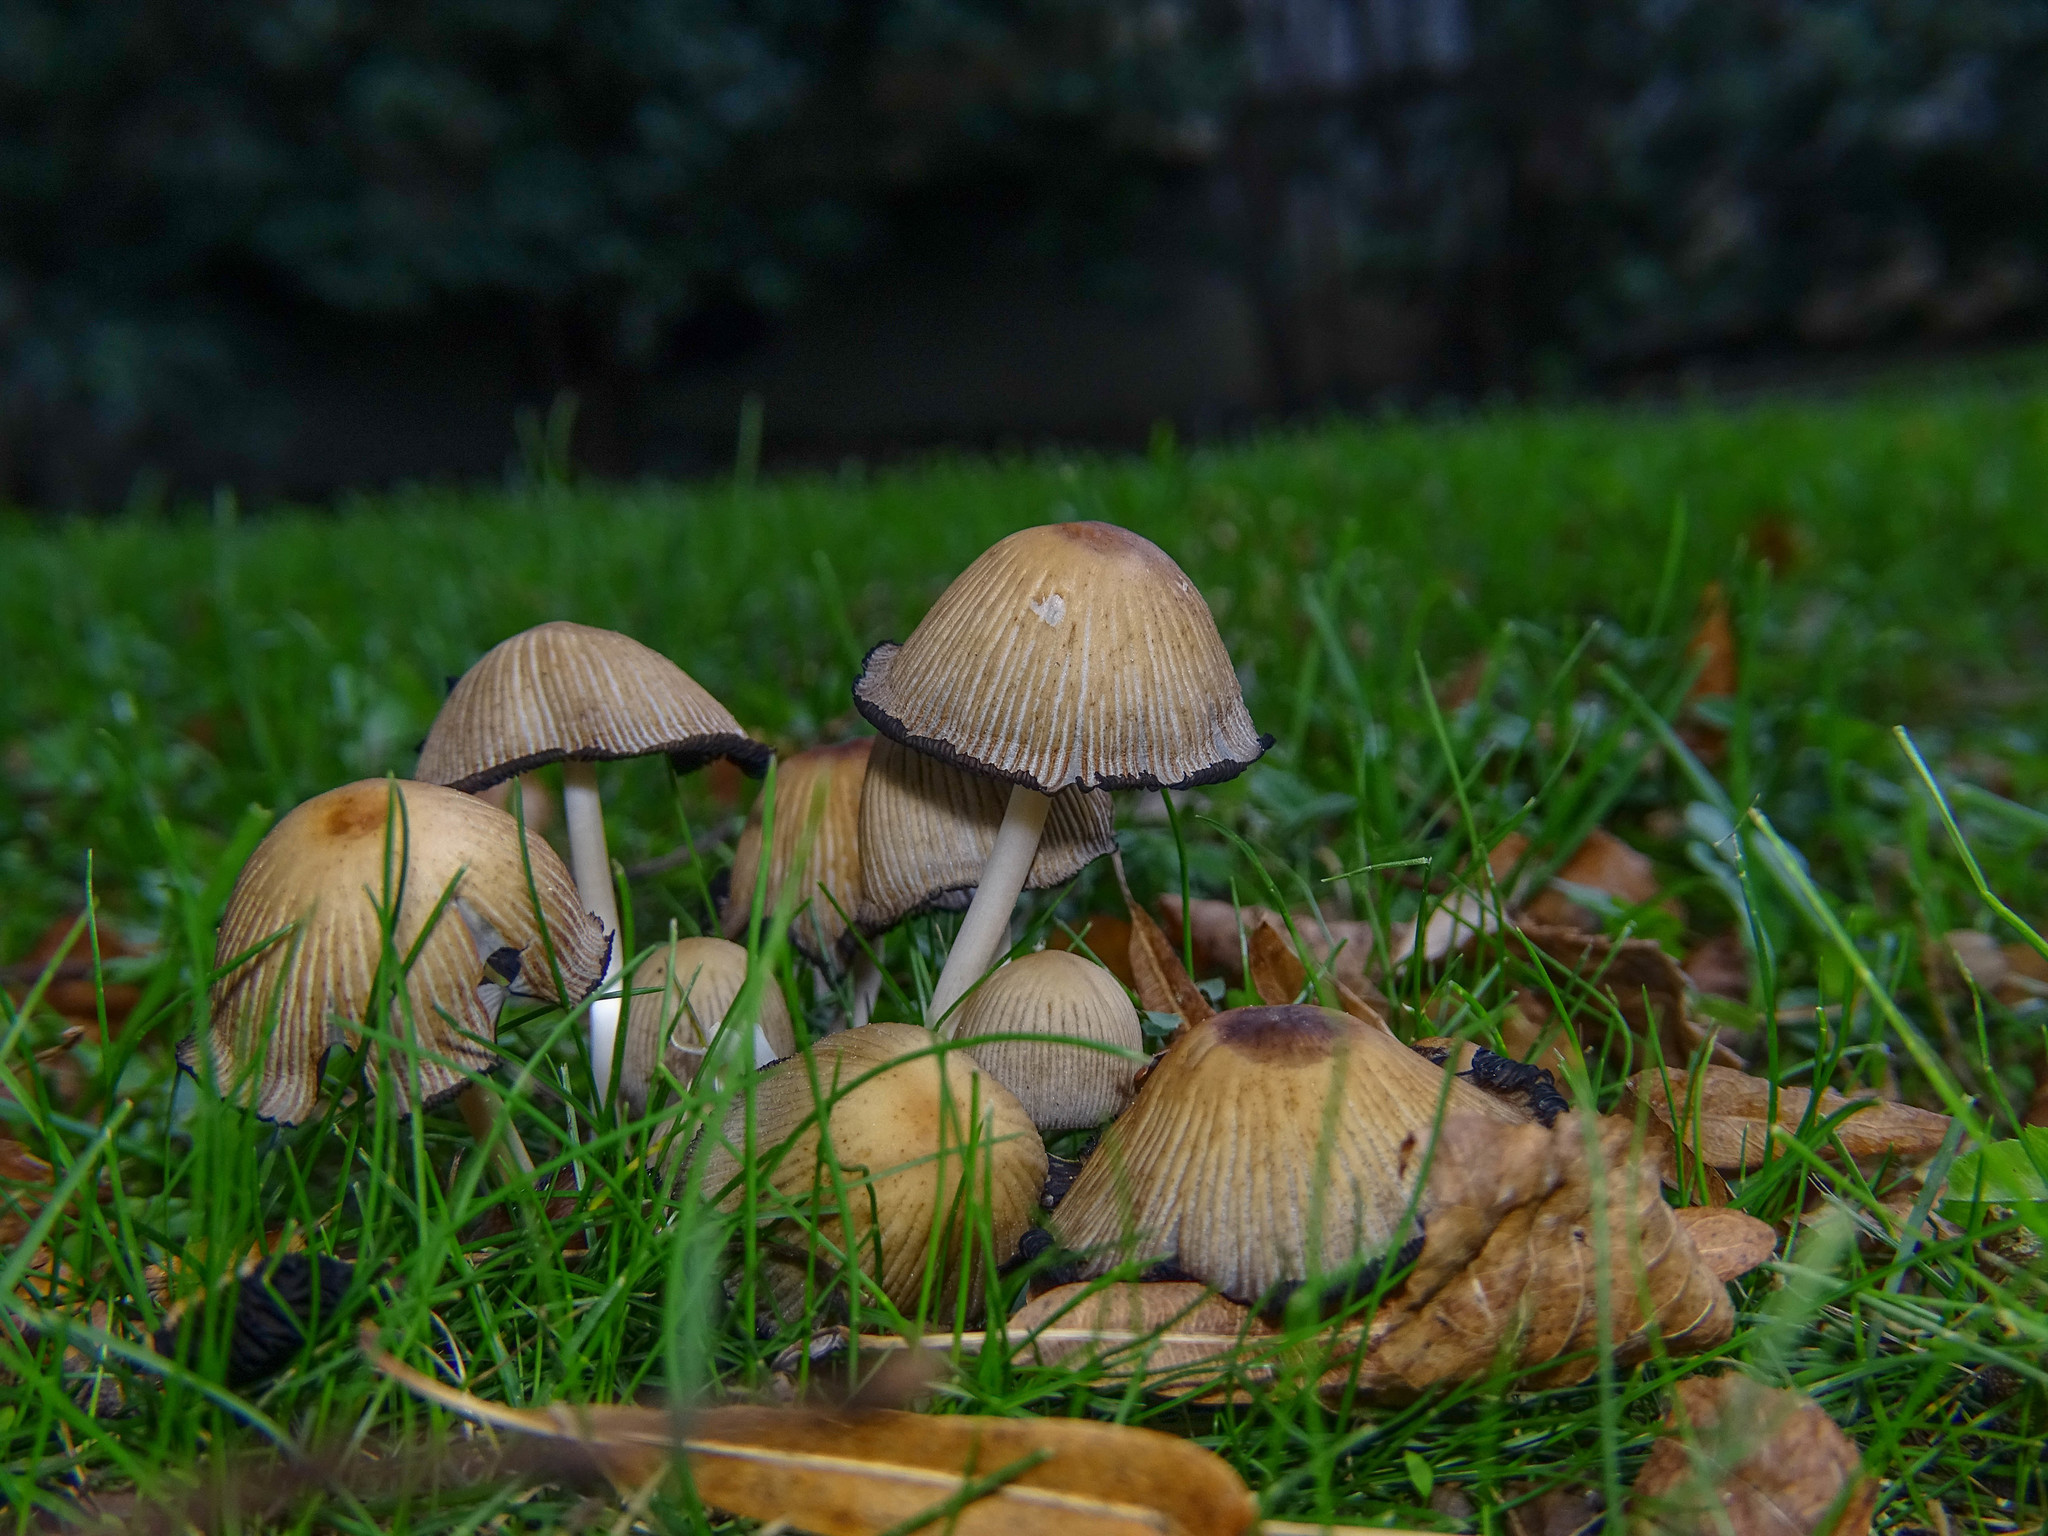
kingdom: Fungi
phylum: Basidiomycota
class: Agaricomycetes
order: Agaricales
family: Psathyrellaceae
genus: Coprinellus
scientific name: Coprinellus micaceus
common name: Glistening ink-cap
